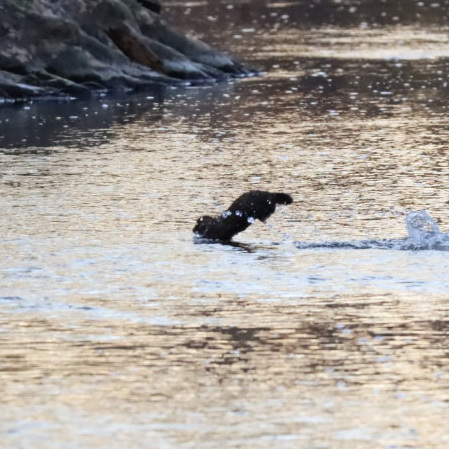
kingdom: Animalia
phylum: Chordata
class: Mammalia
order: Carnivora
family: Mustelidae
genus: Mustela
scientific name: Mustela
